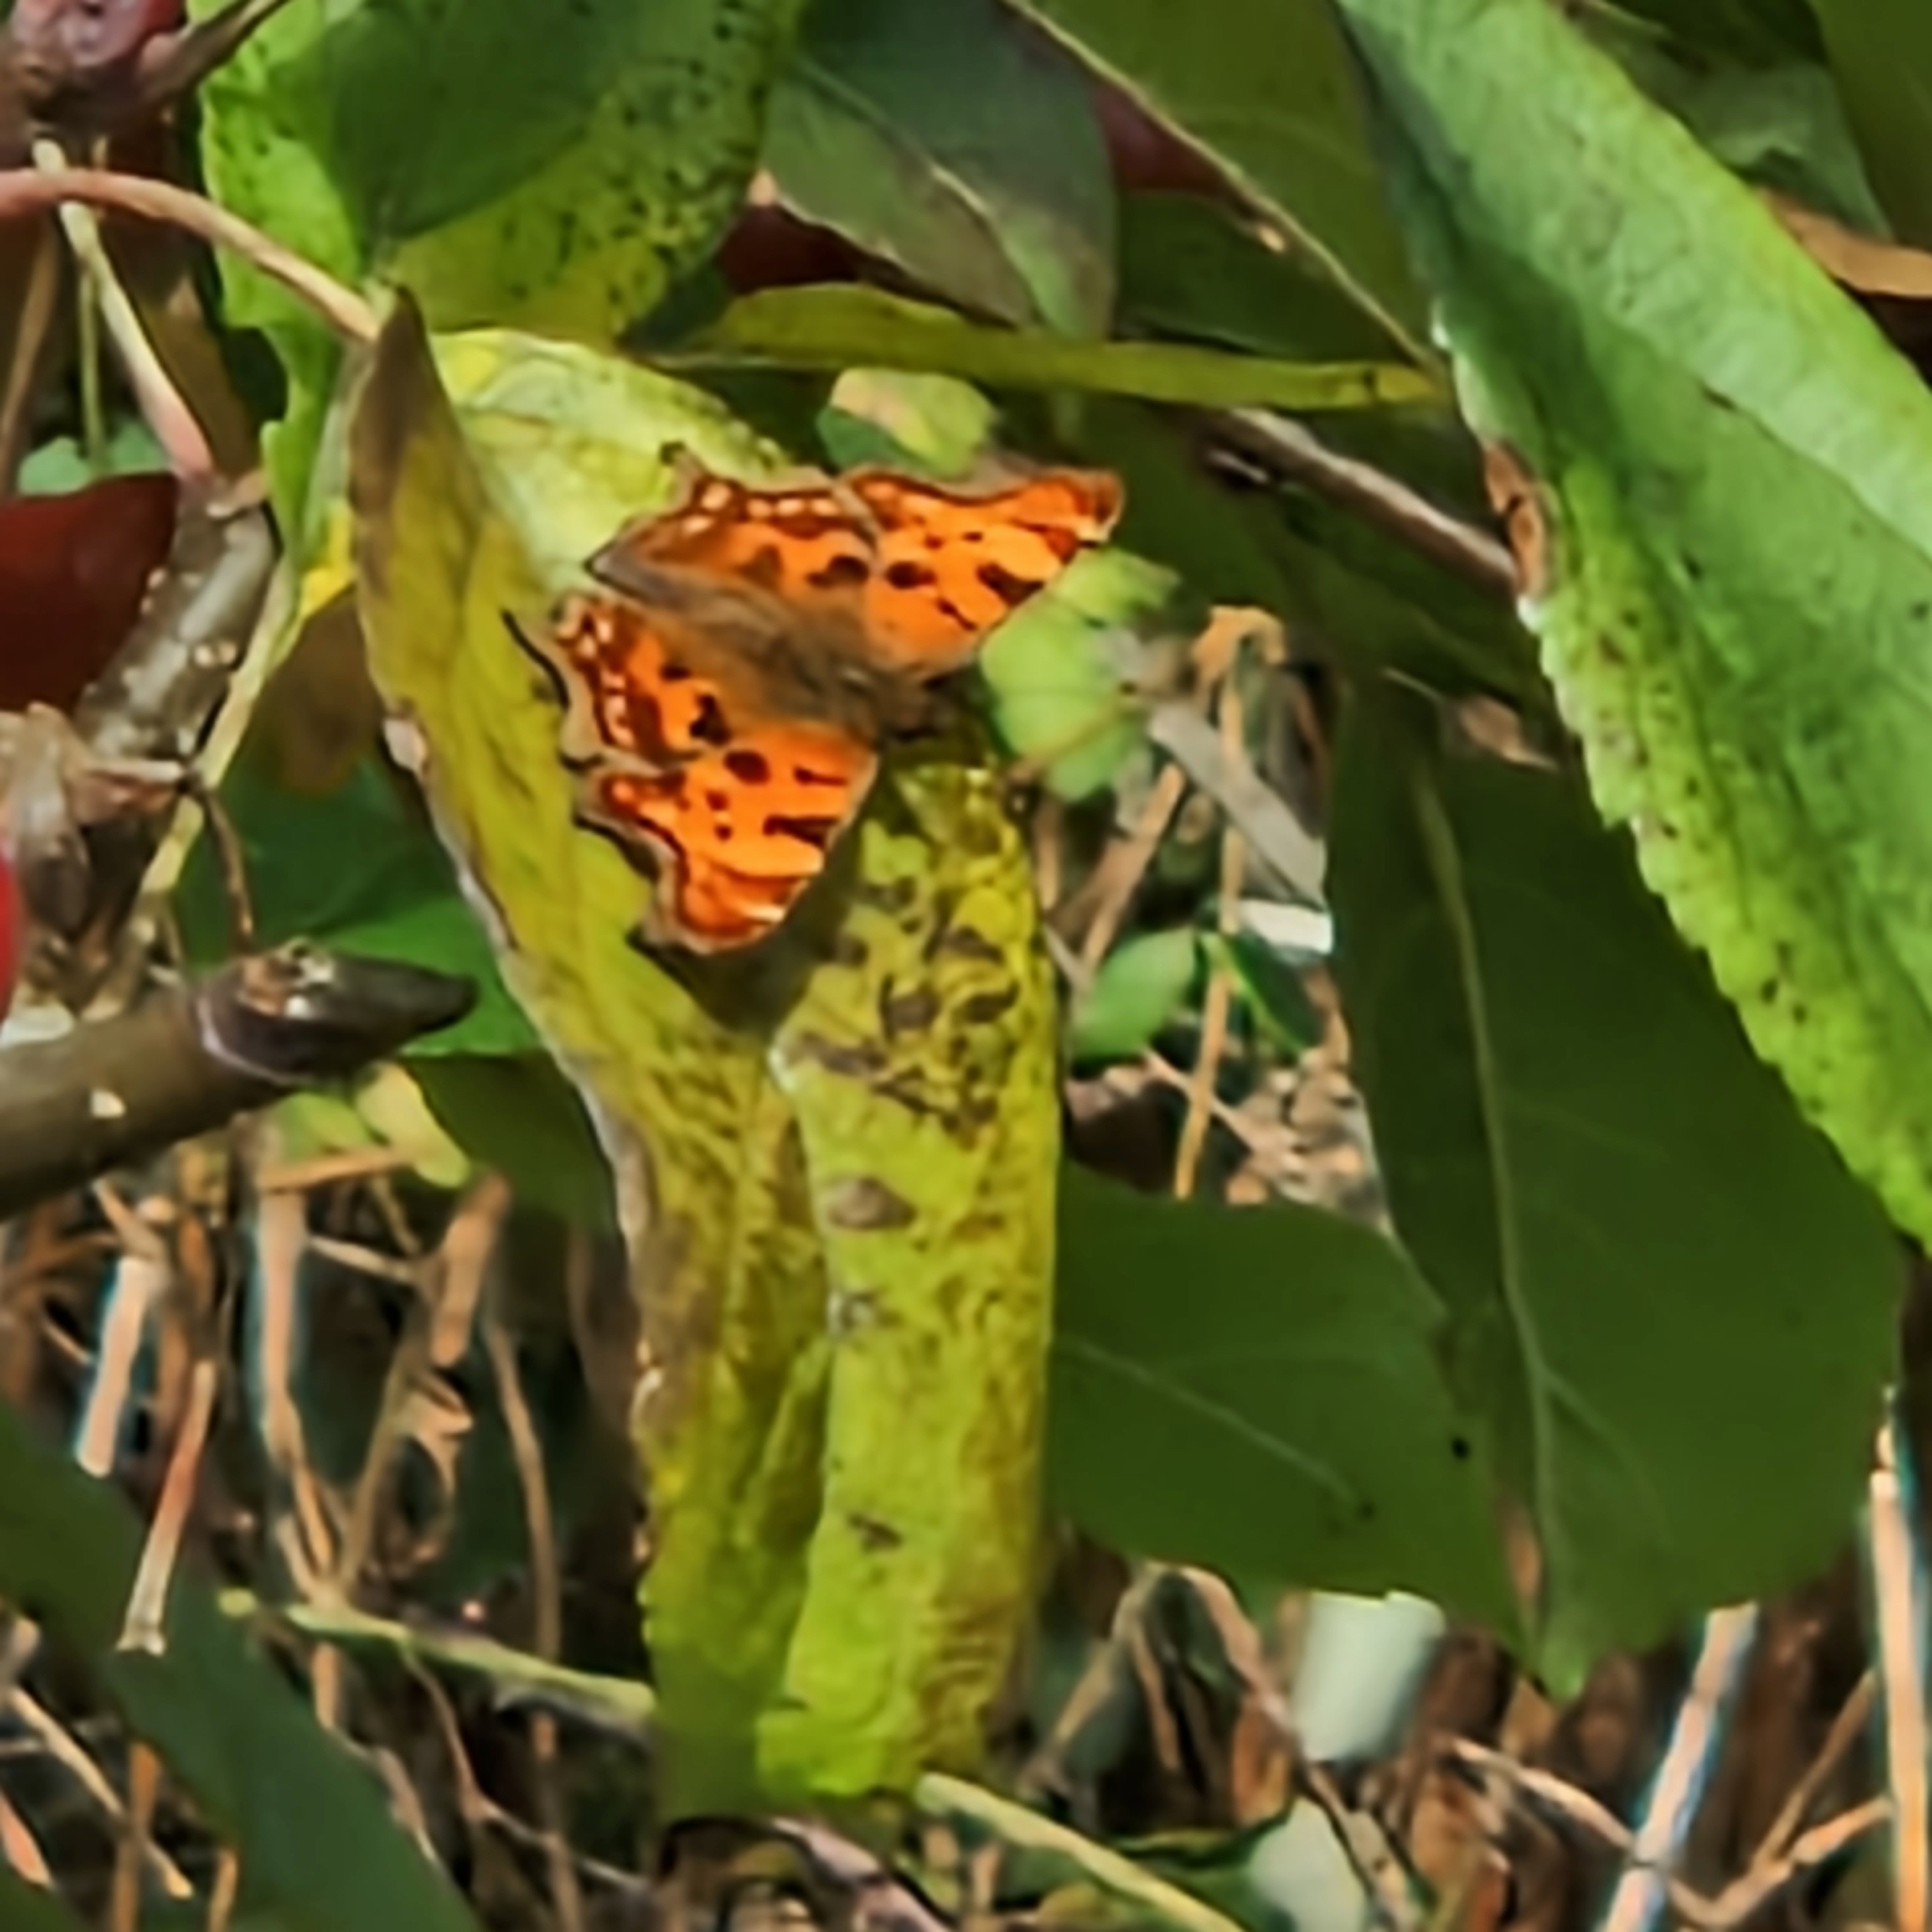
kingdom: Animalia
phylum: Arthropoda
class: Insecta
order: Lepidoptera
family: Nymphalidae
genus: Polygonia
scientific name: Polygonia c-album
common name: Comma
